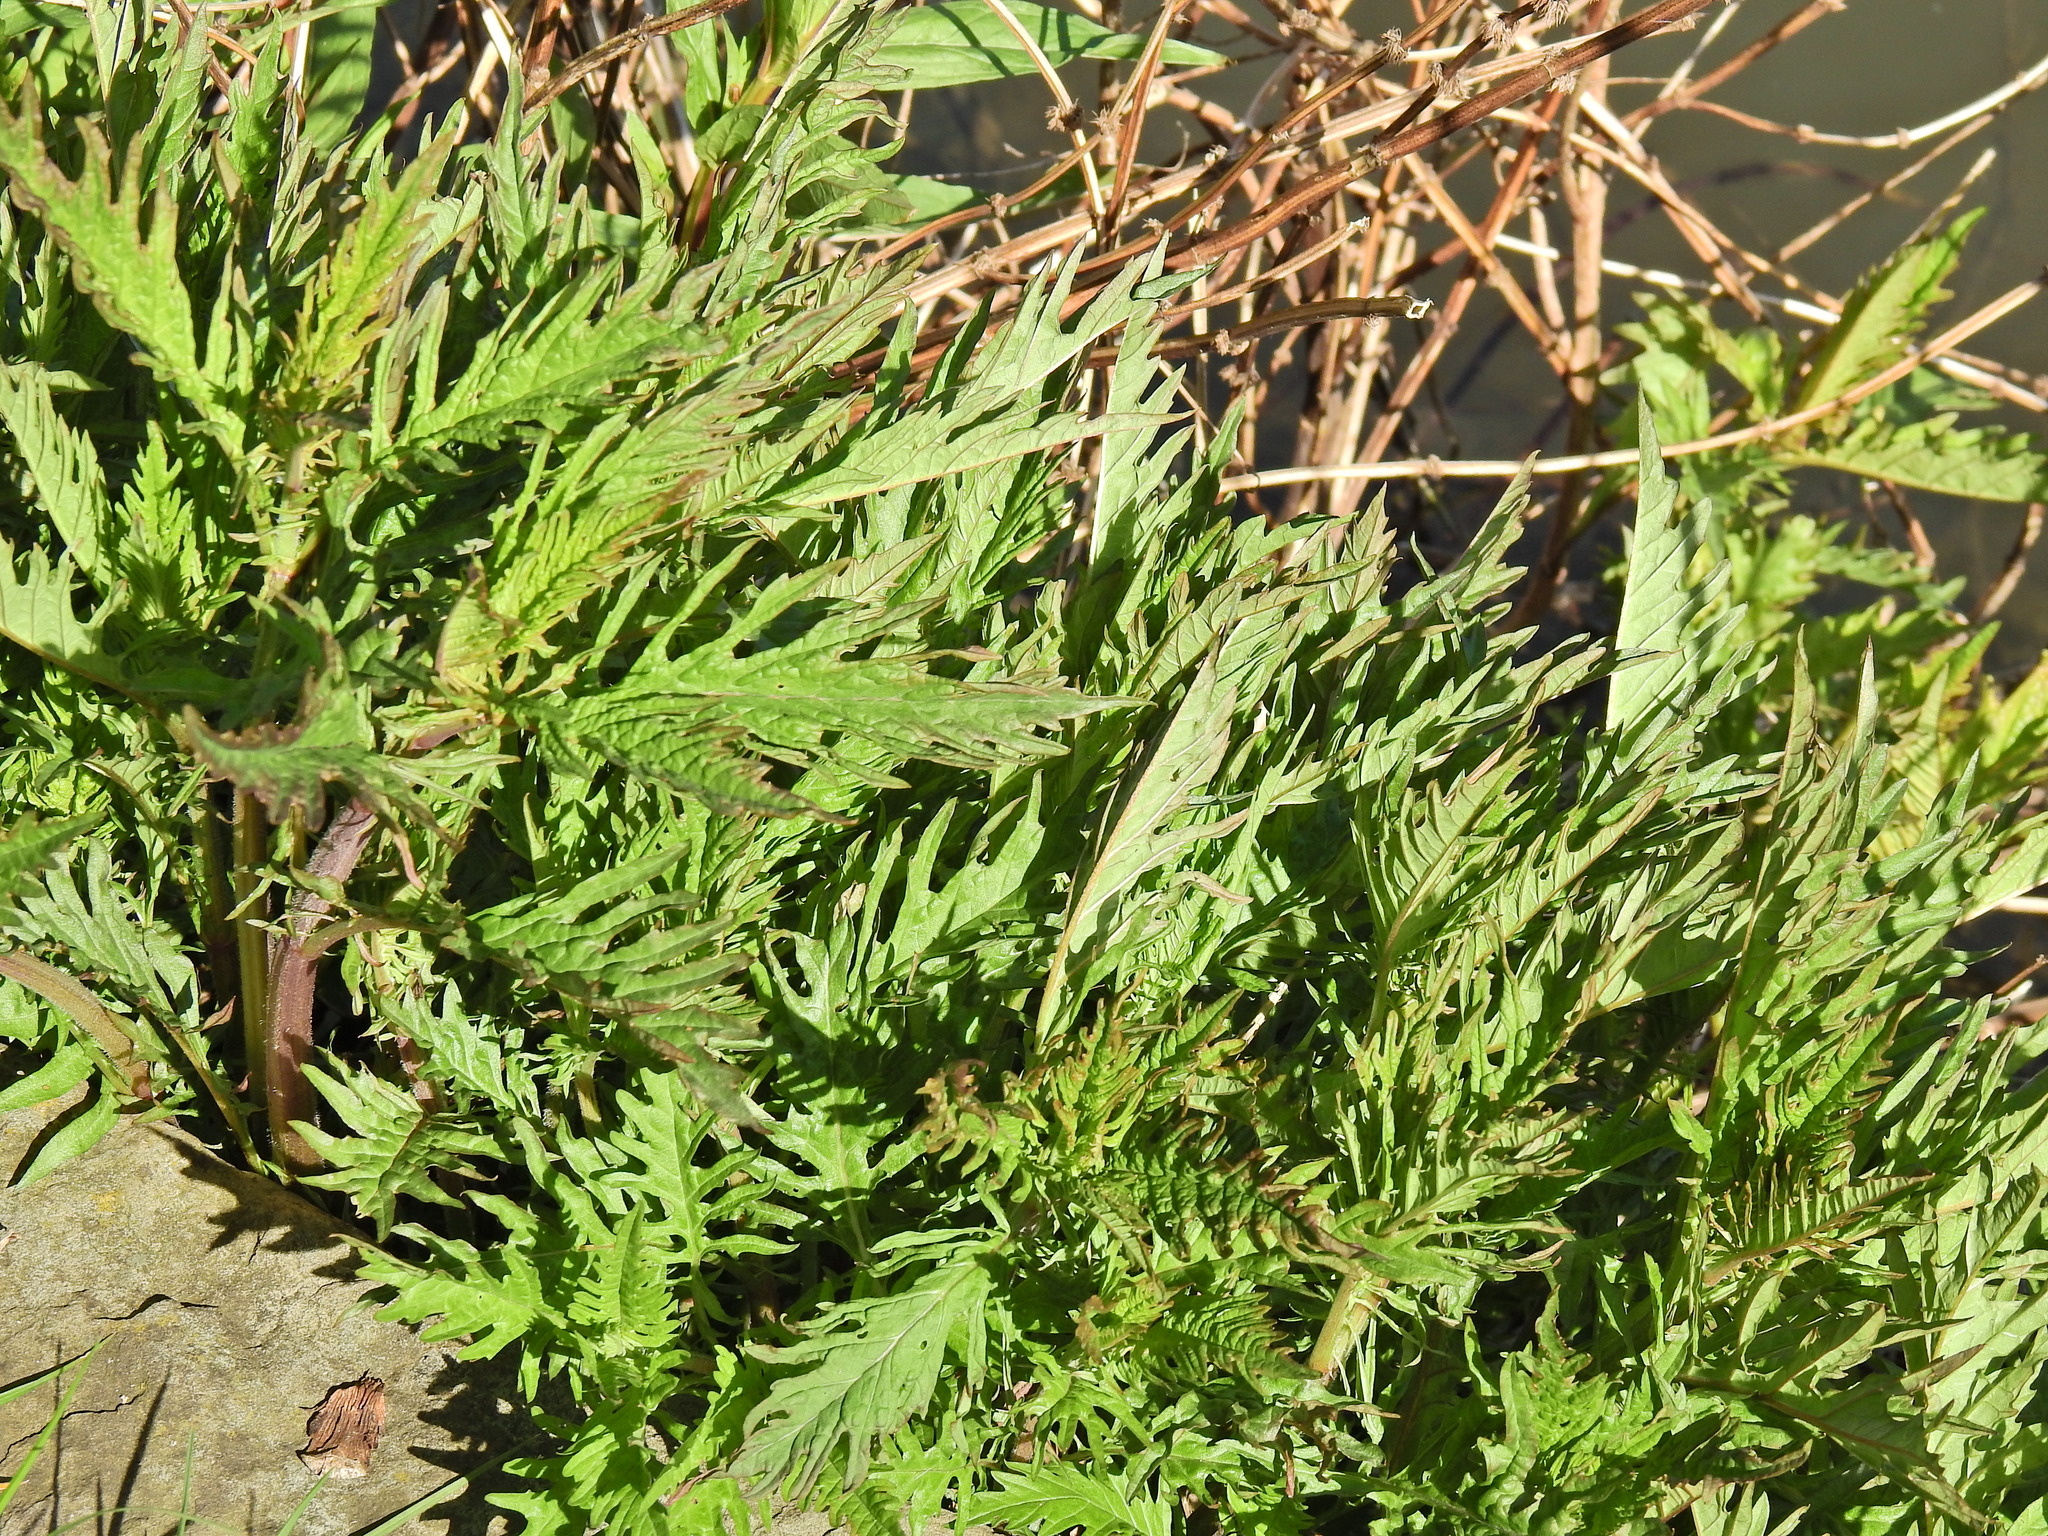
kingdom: Plantae
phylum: Tracheophyta
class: Magnoliopsida
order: Lamiales
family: Lamiaceae
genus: Lycopus
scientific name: Lycopus europaeus
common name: European bugleweed
